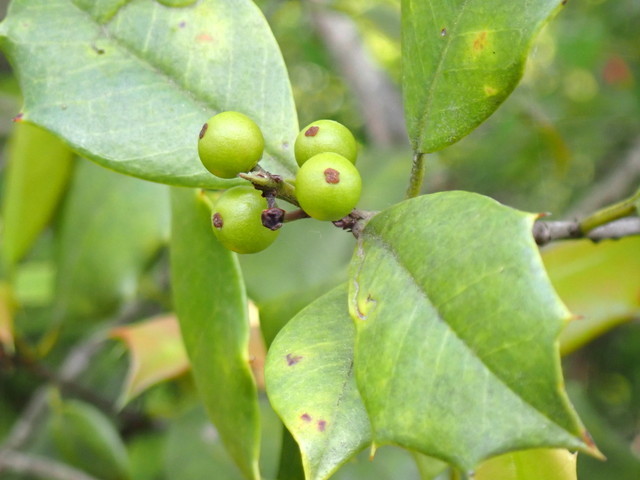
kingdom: Plantae
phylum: Tracheophyta
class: Magnoliopsida
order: Aquifoliales
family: Aquifoliaceae
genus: Ilex
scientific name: Ilex opaca
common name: American holly
